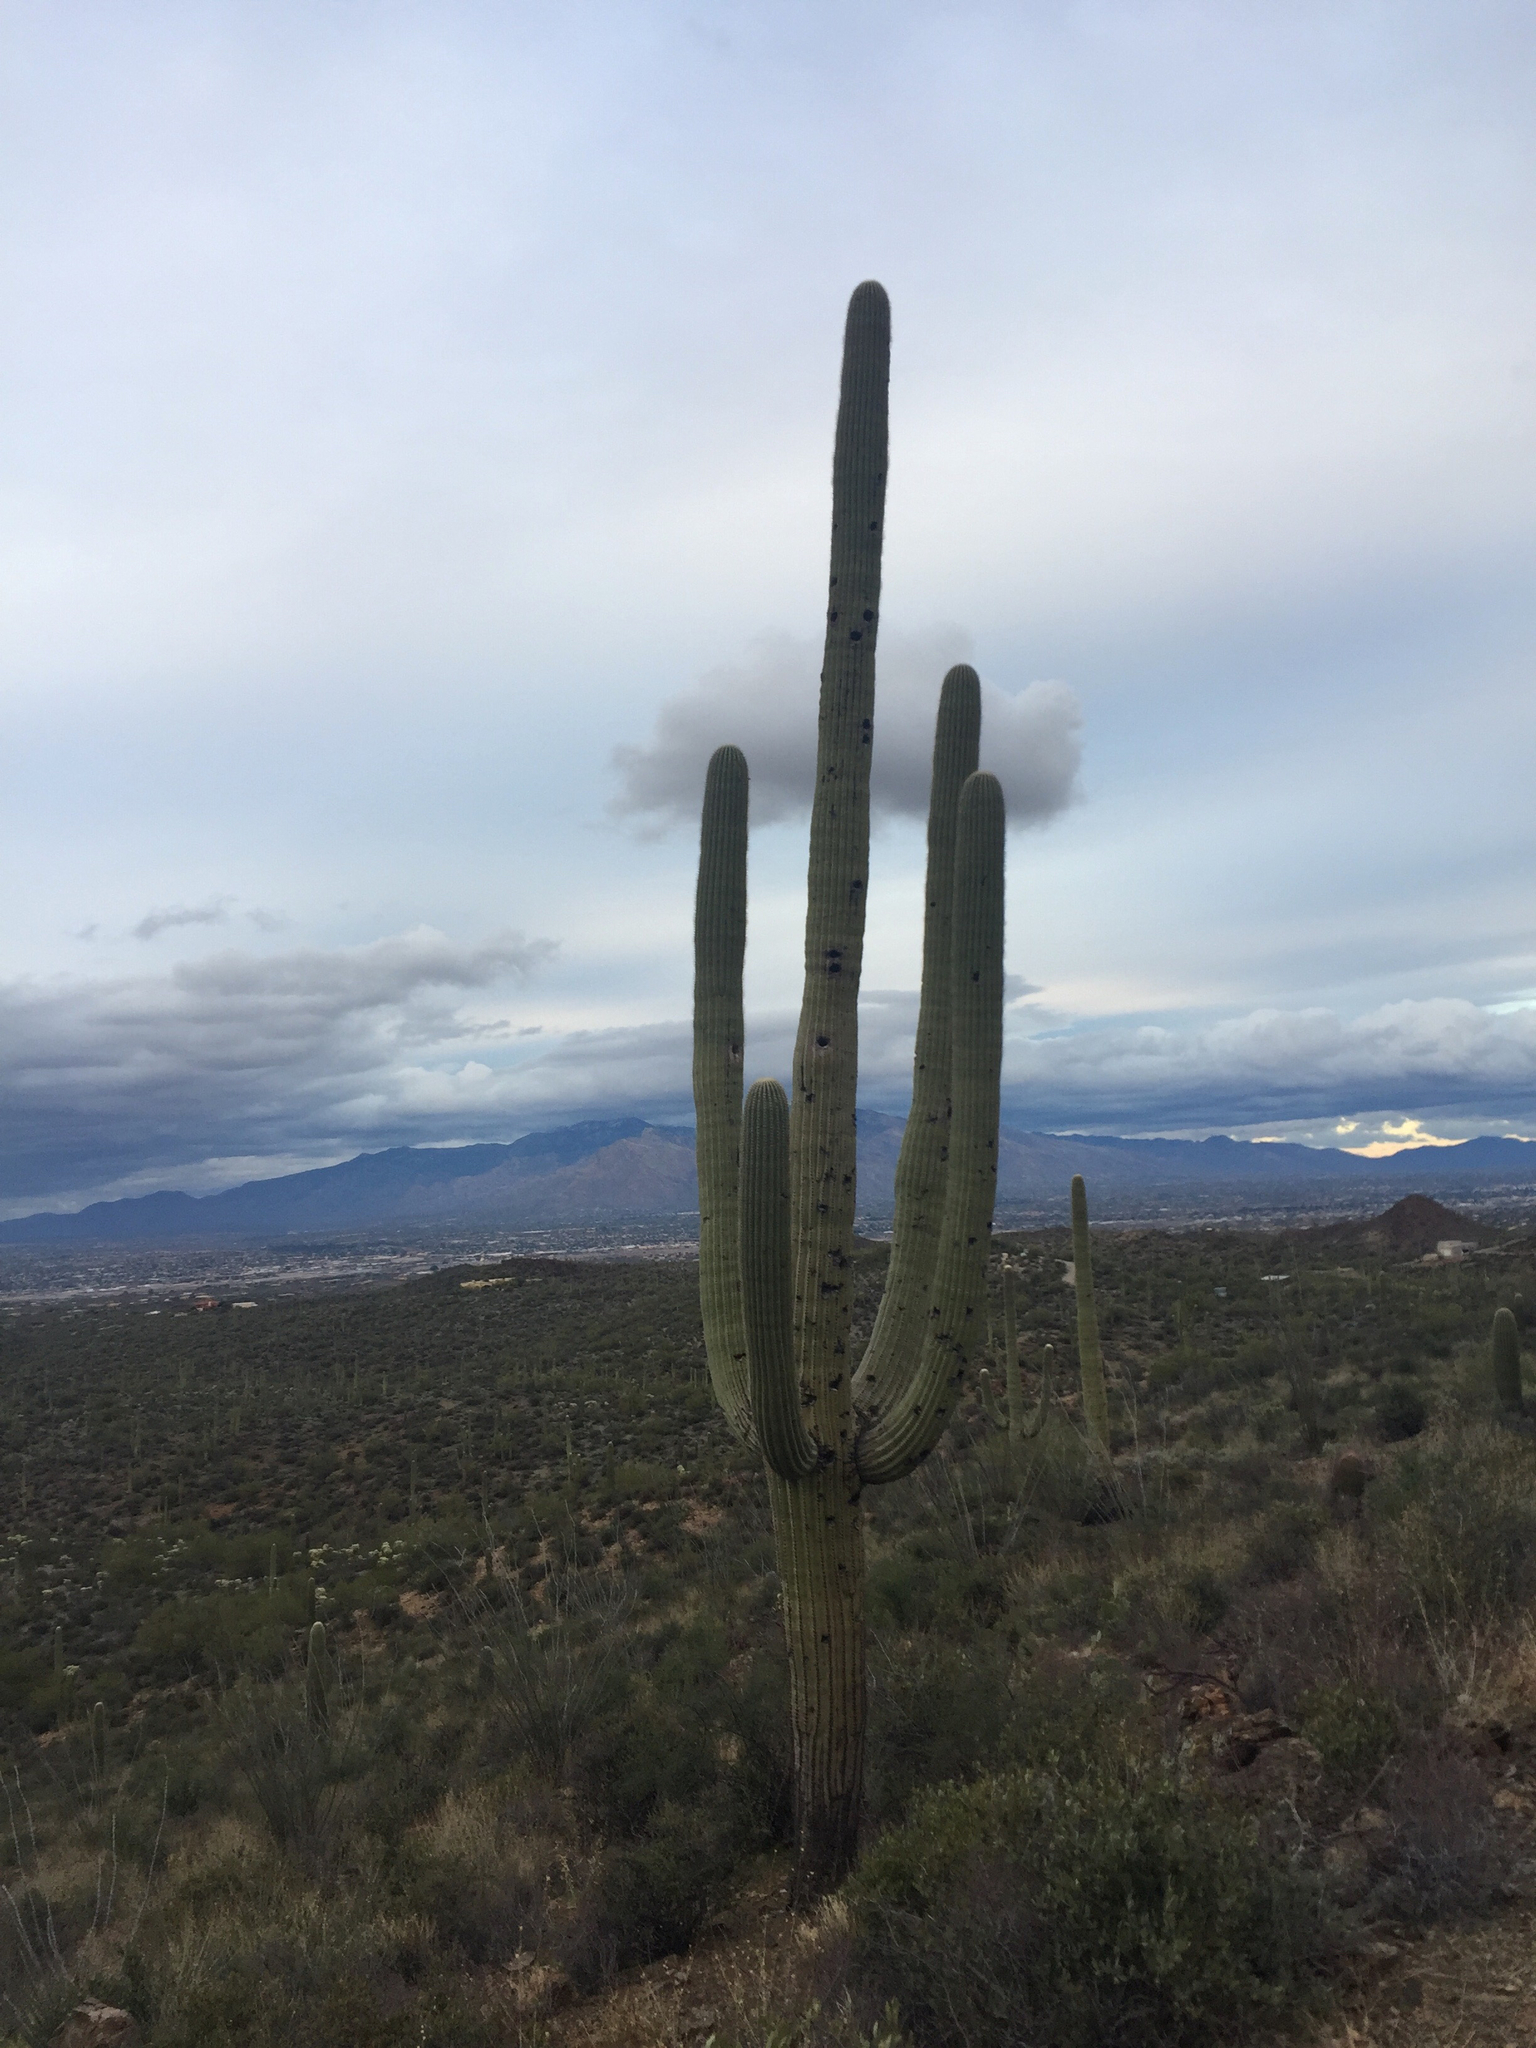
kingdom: Plantae
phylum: Tracheophyta
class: Magnoliopsida
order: Caryophyllales
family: Cactaceae
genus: Carnegiea
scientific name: Carnegiea gigantea
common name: Saguaro
